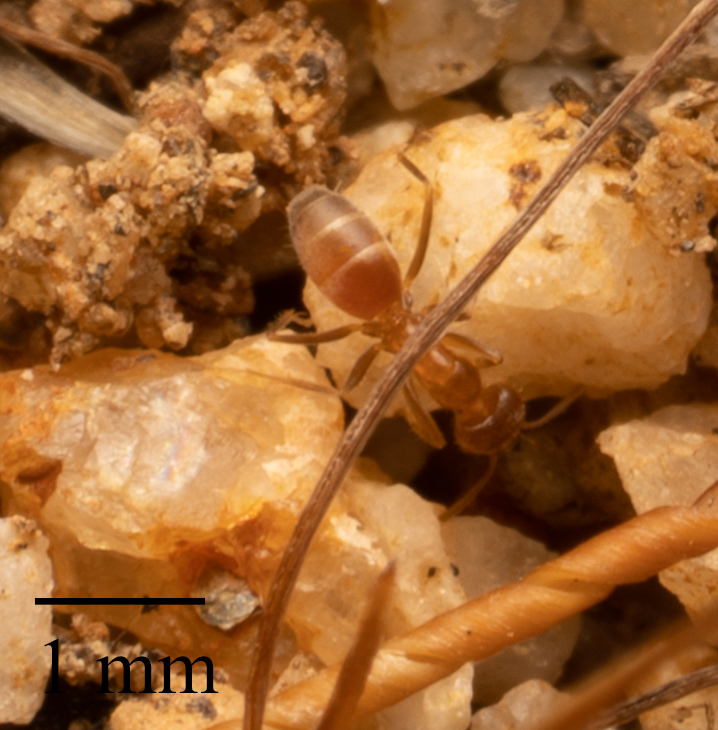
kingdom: Animalia
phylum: Arthropoda
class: Insecta
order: Hymenoptera
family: Formicidae
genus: Forelius
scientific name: Forelius mccooki
